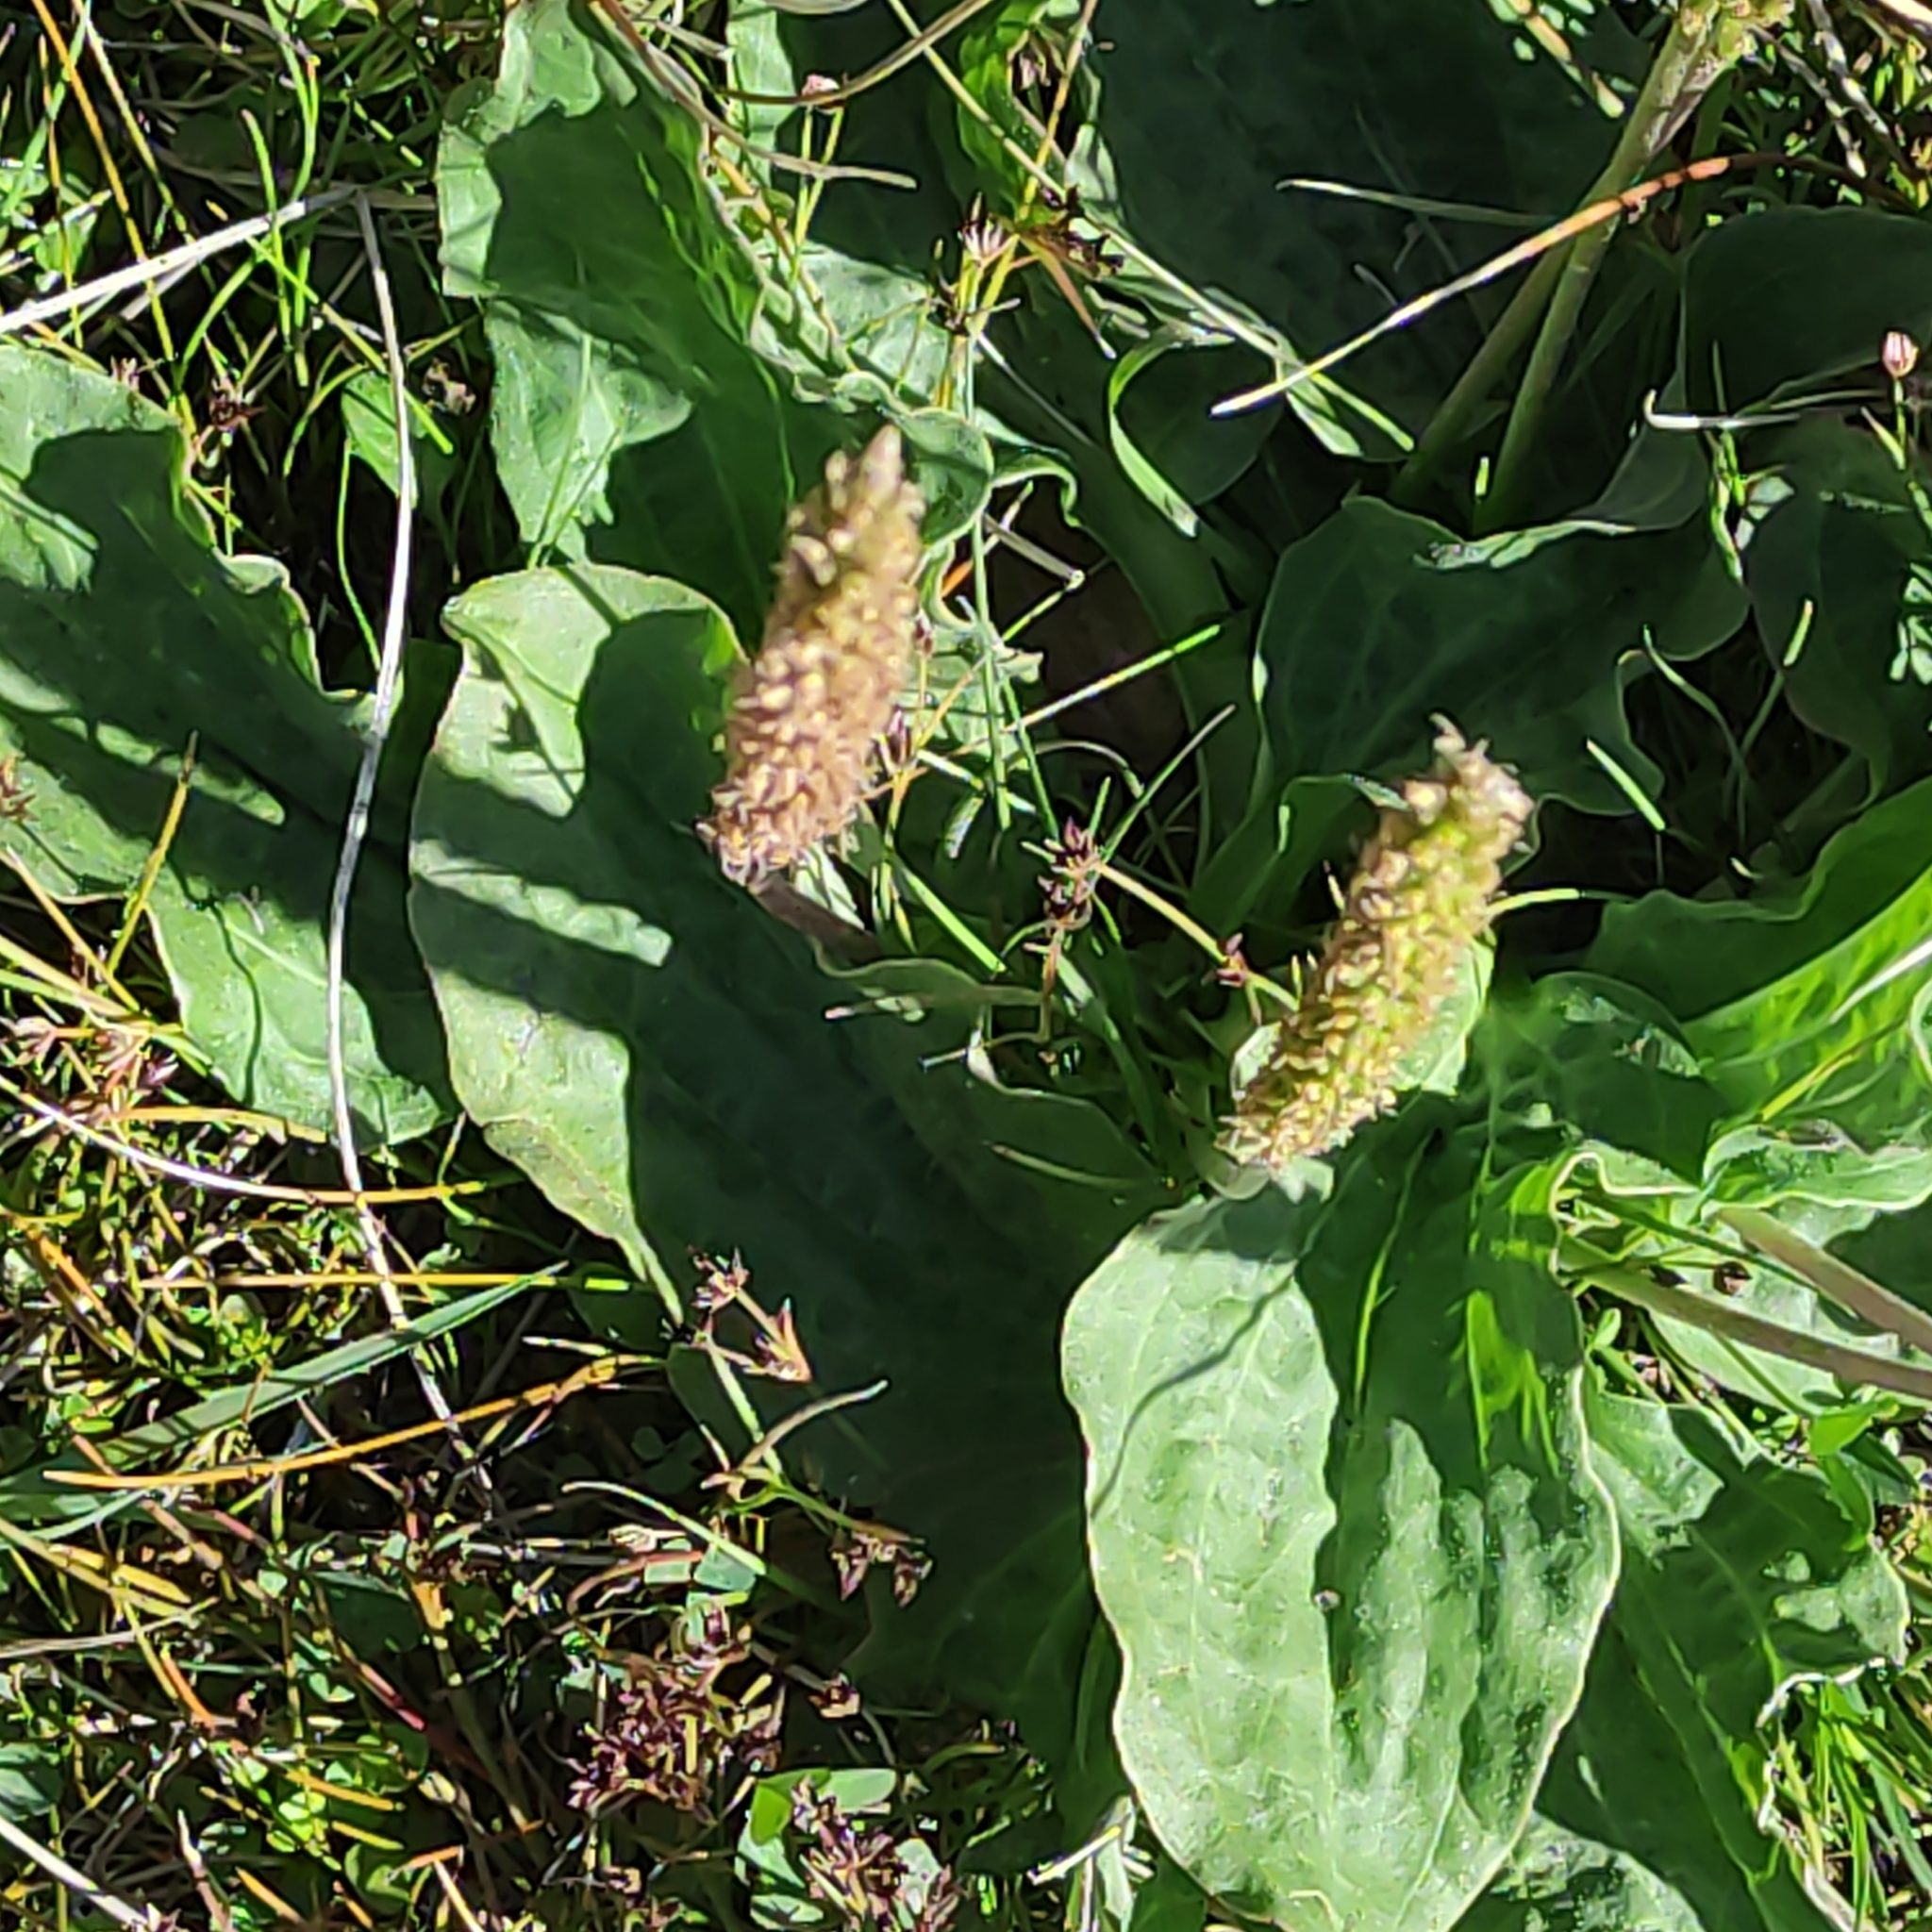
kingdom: Plantae
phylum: Tracheophyta
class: Magnoliopsida
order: Lamiales
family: Plantaginaceae
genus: Plantago
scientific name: Plantago major
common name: Common plantain
